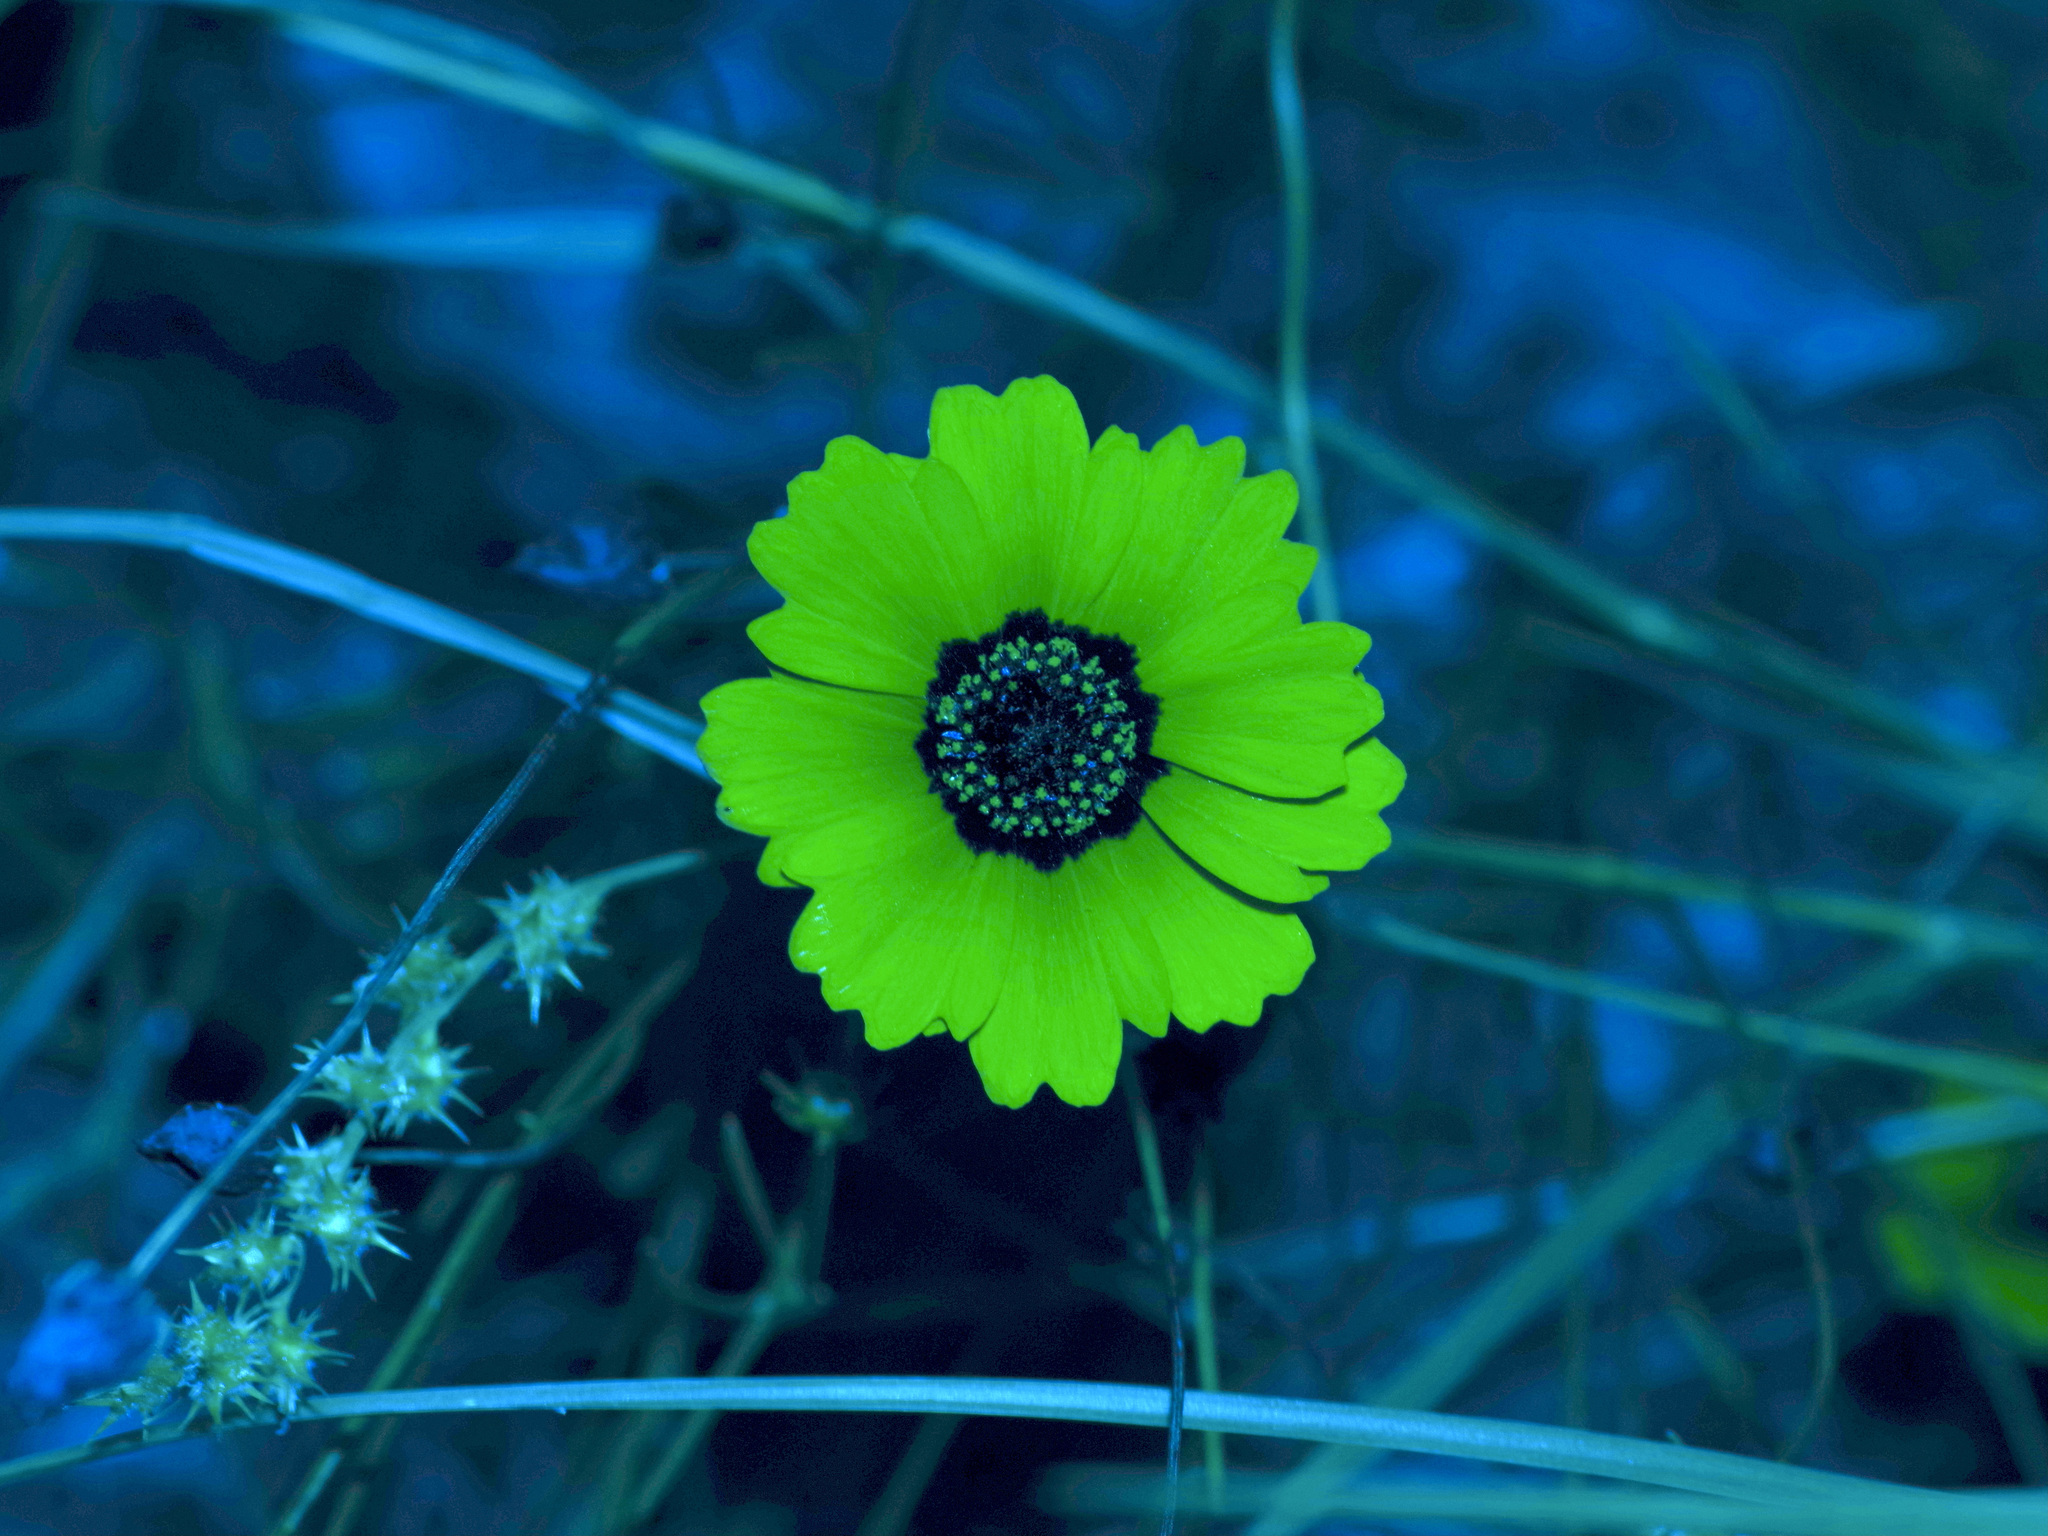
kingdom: Plantae
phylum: Tracheophyta
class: Magnoliopsida
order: Asterales
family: Asteraceae
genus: Coreopsis
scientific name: Coreopsis basalis
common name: Golden-mane coreopsis
